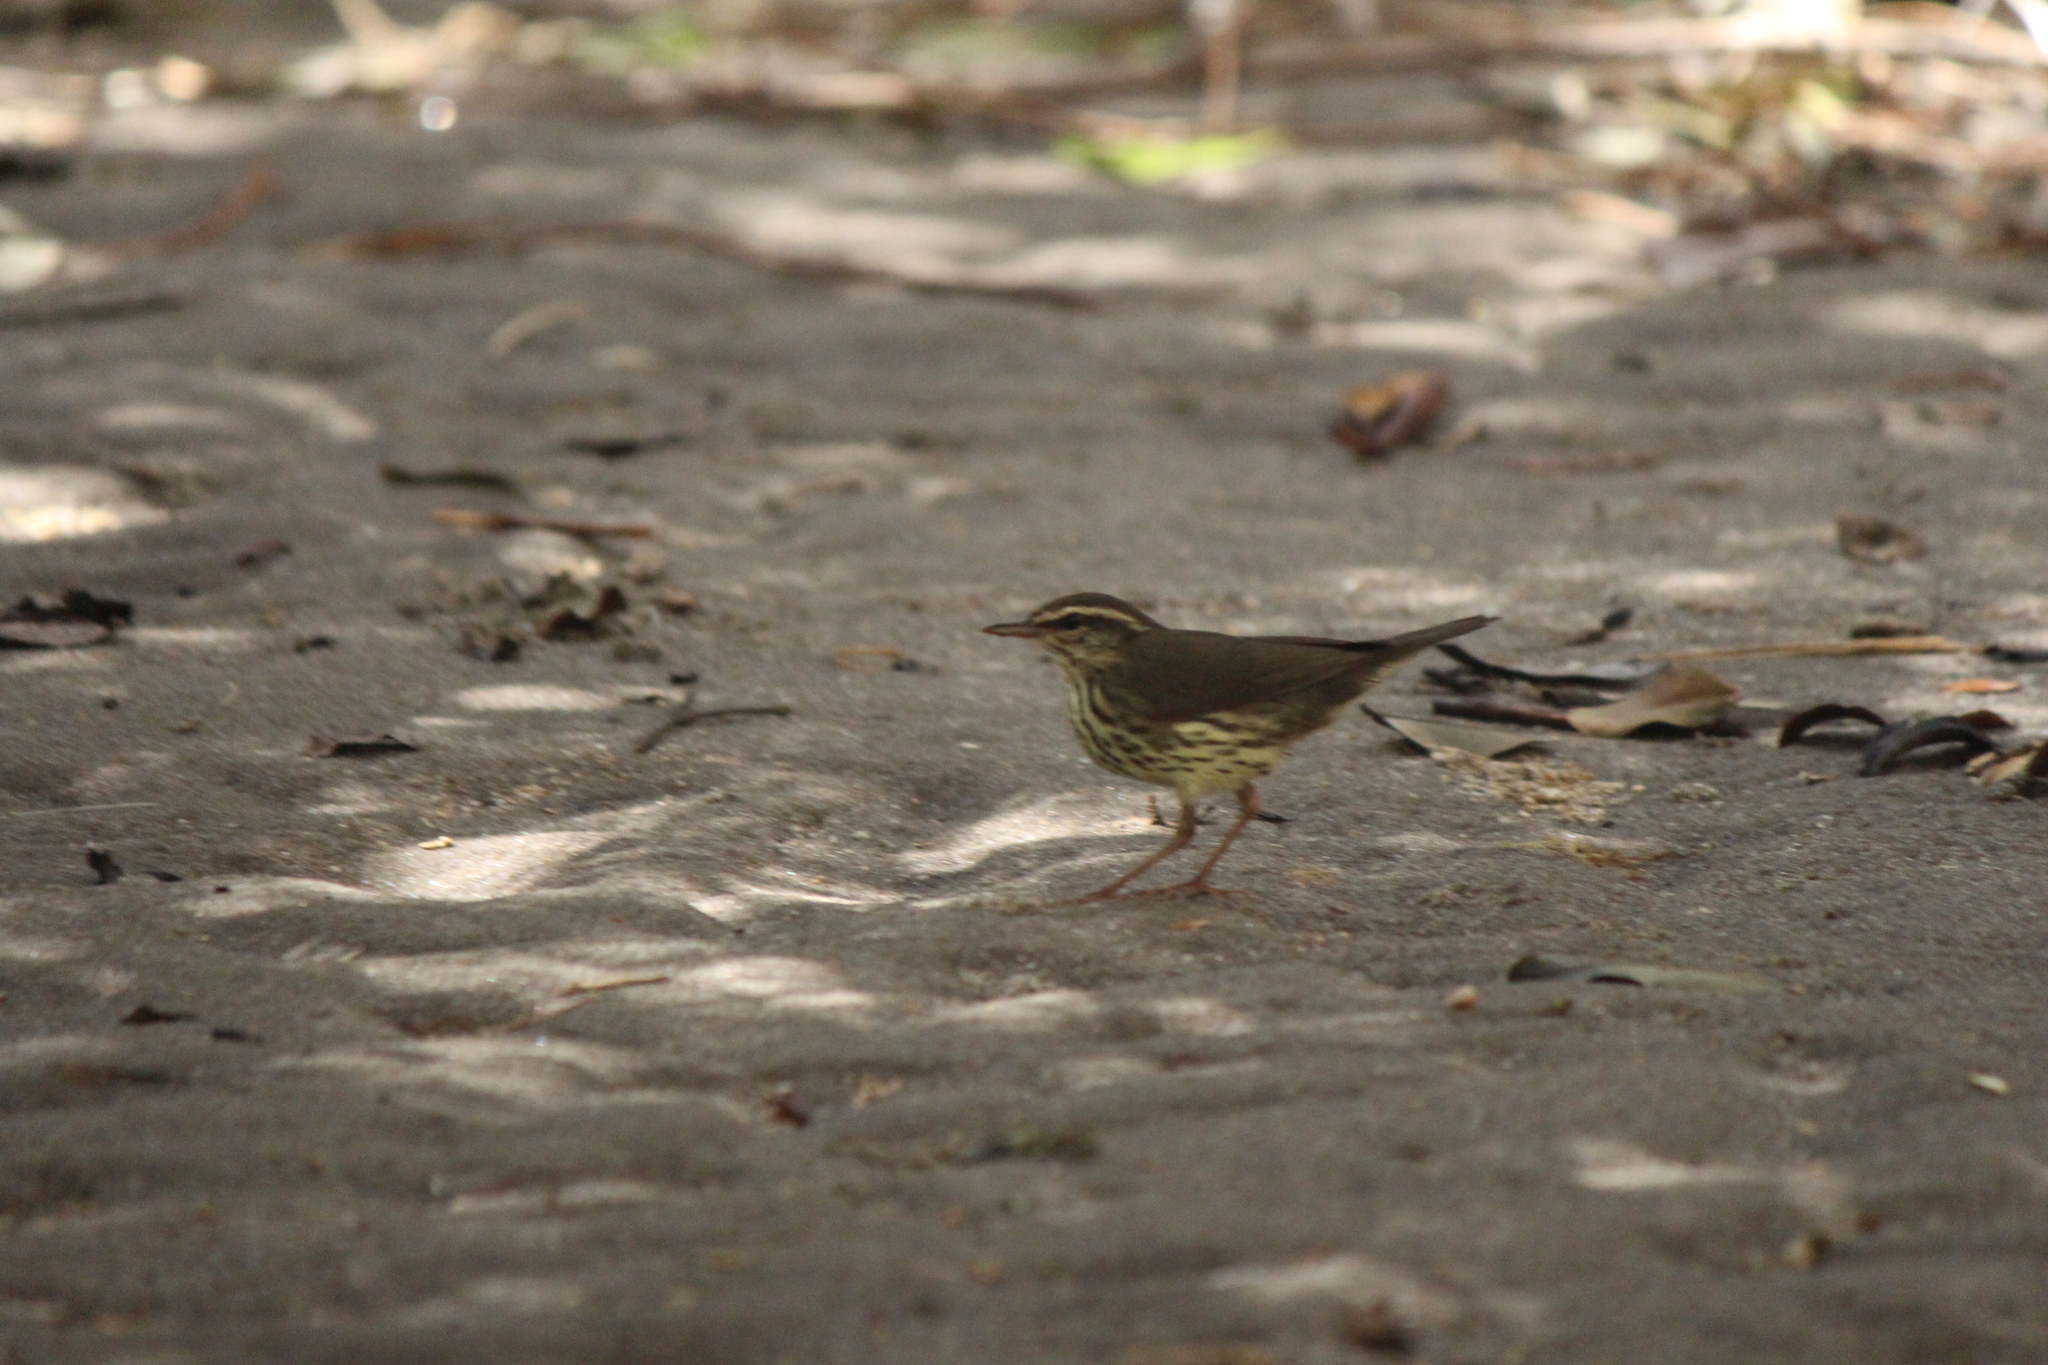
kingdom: Animalia
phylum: Chordata
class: Aves
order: Passeriformes
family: Parulidae
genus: Parkesia
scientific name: Parkesia noveboracensis
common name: Northern waterthrush
